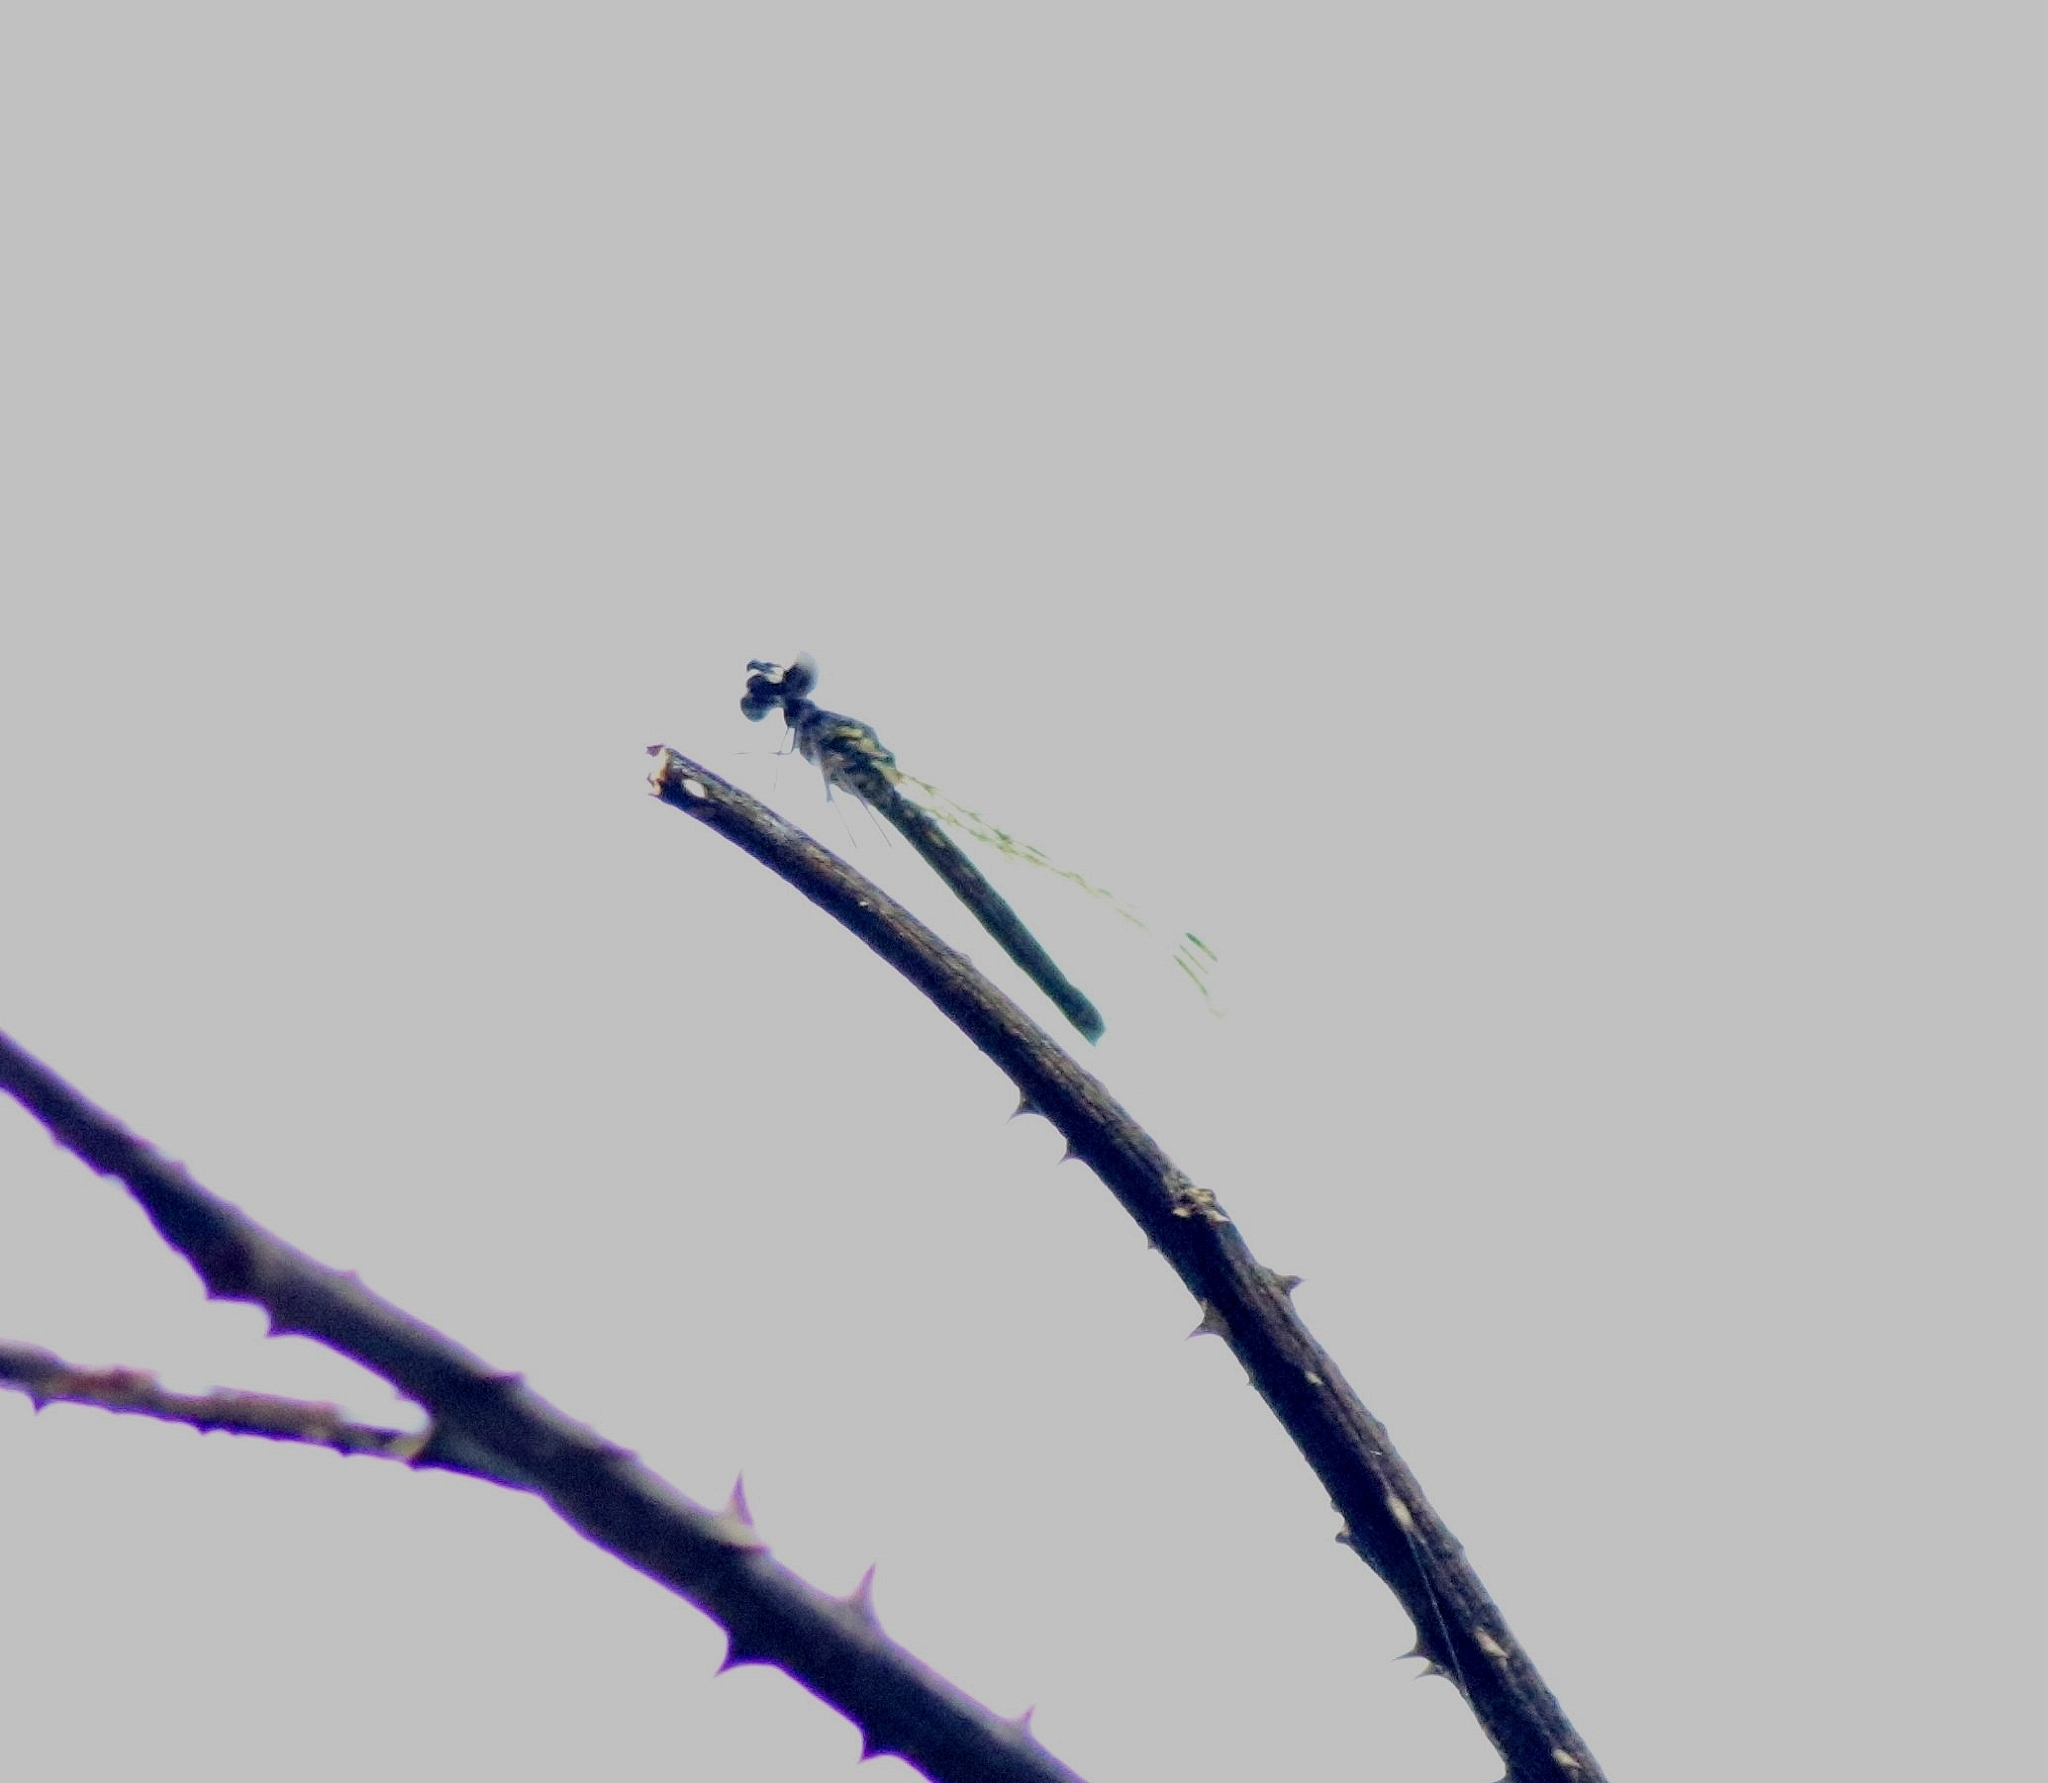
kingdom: Animalia
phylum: Arthropoda
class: Insecta
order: Odonata
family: Chlorocyphidae
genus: Libellago
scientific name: Libellago indica
